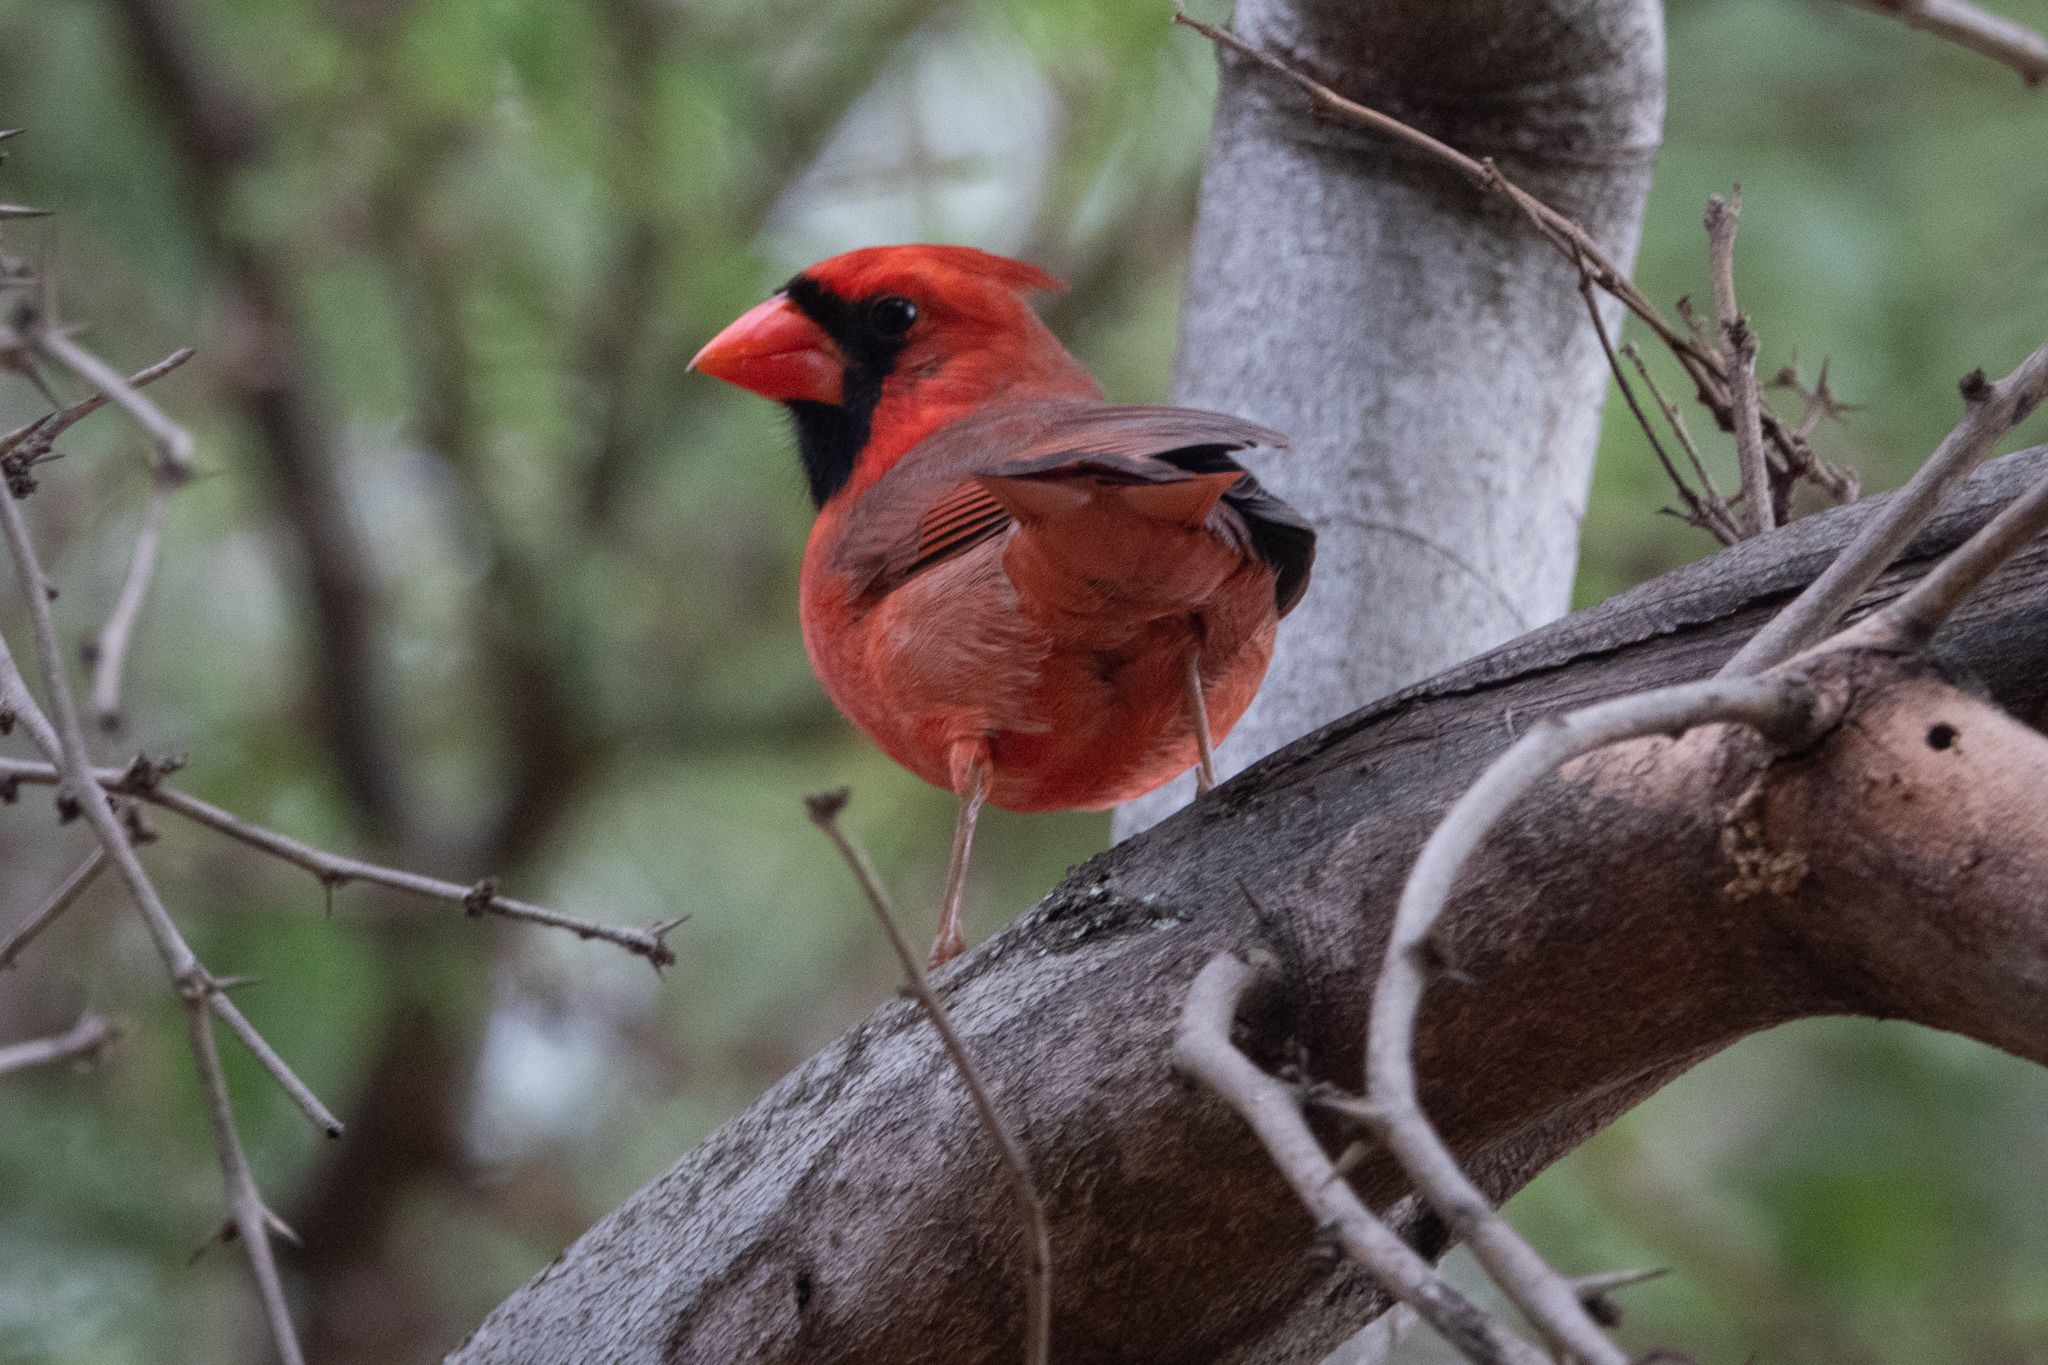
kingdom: Animalia
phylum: Chordata
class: Aves
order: Passeriformes
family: Cardinalidae
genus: Cardinalis
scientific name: Cardinalis cardinalis
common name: Northern cardinal
